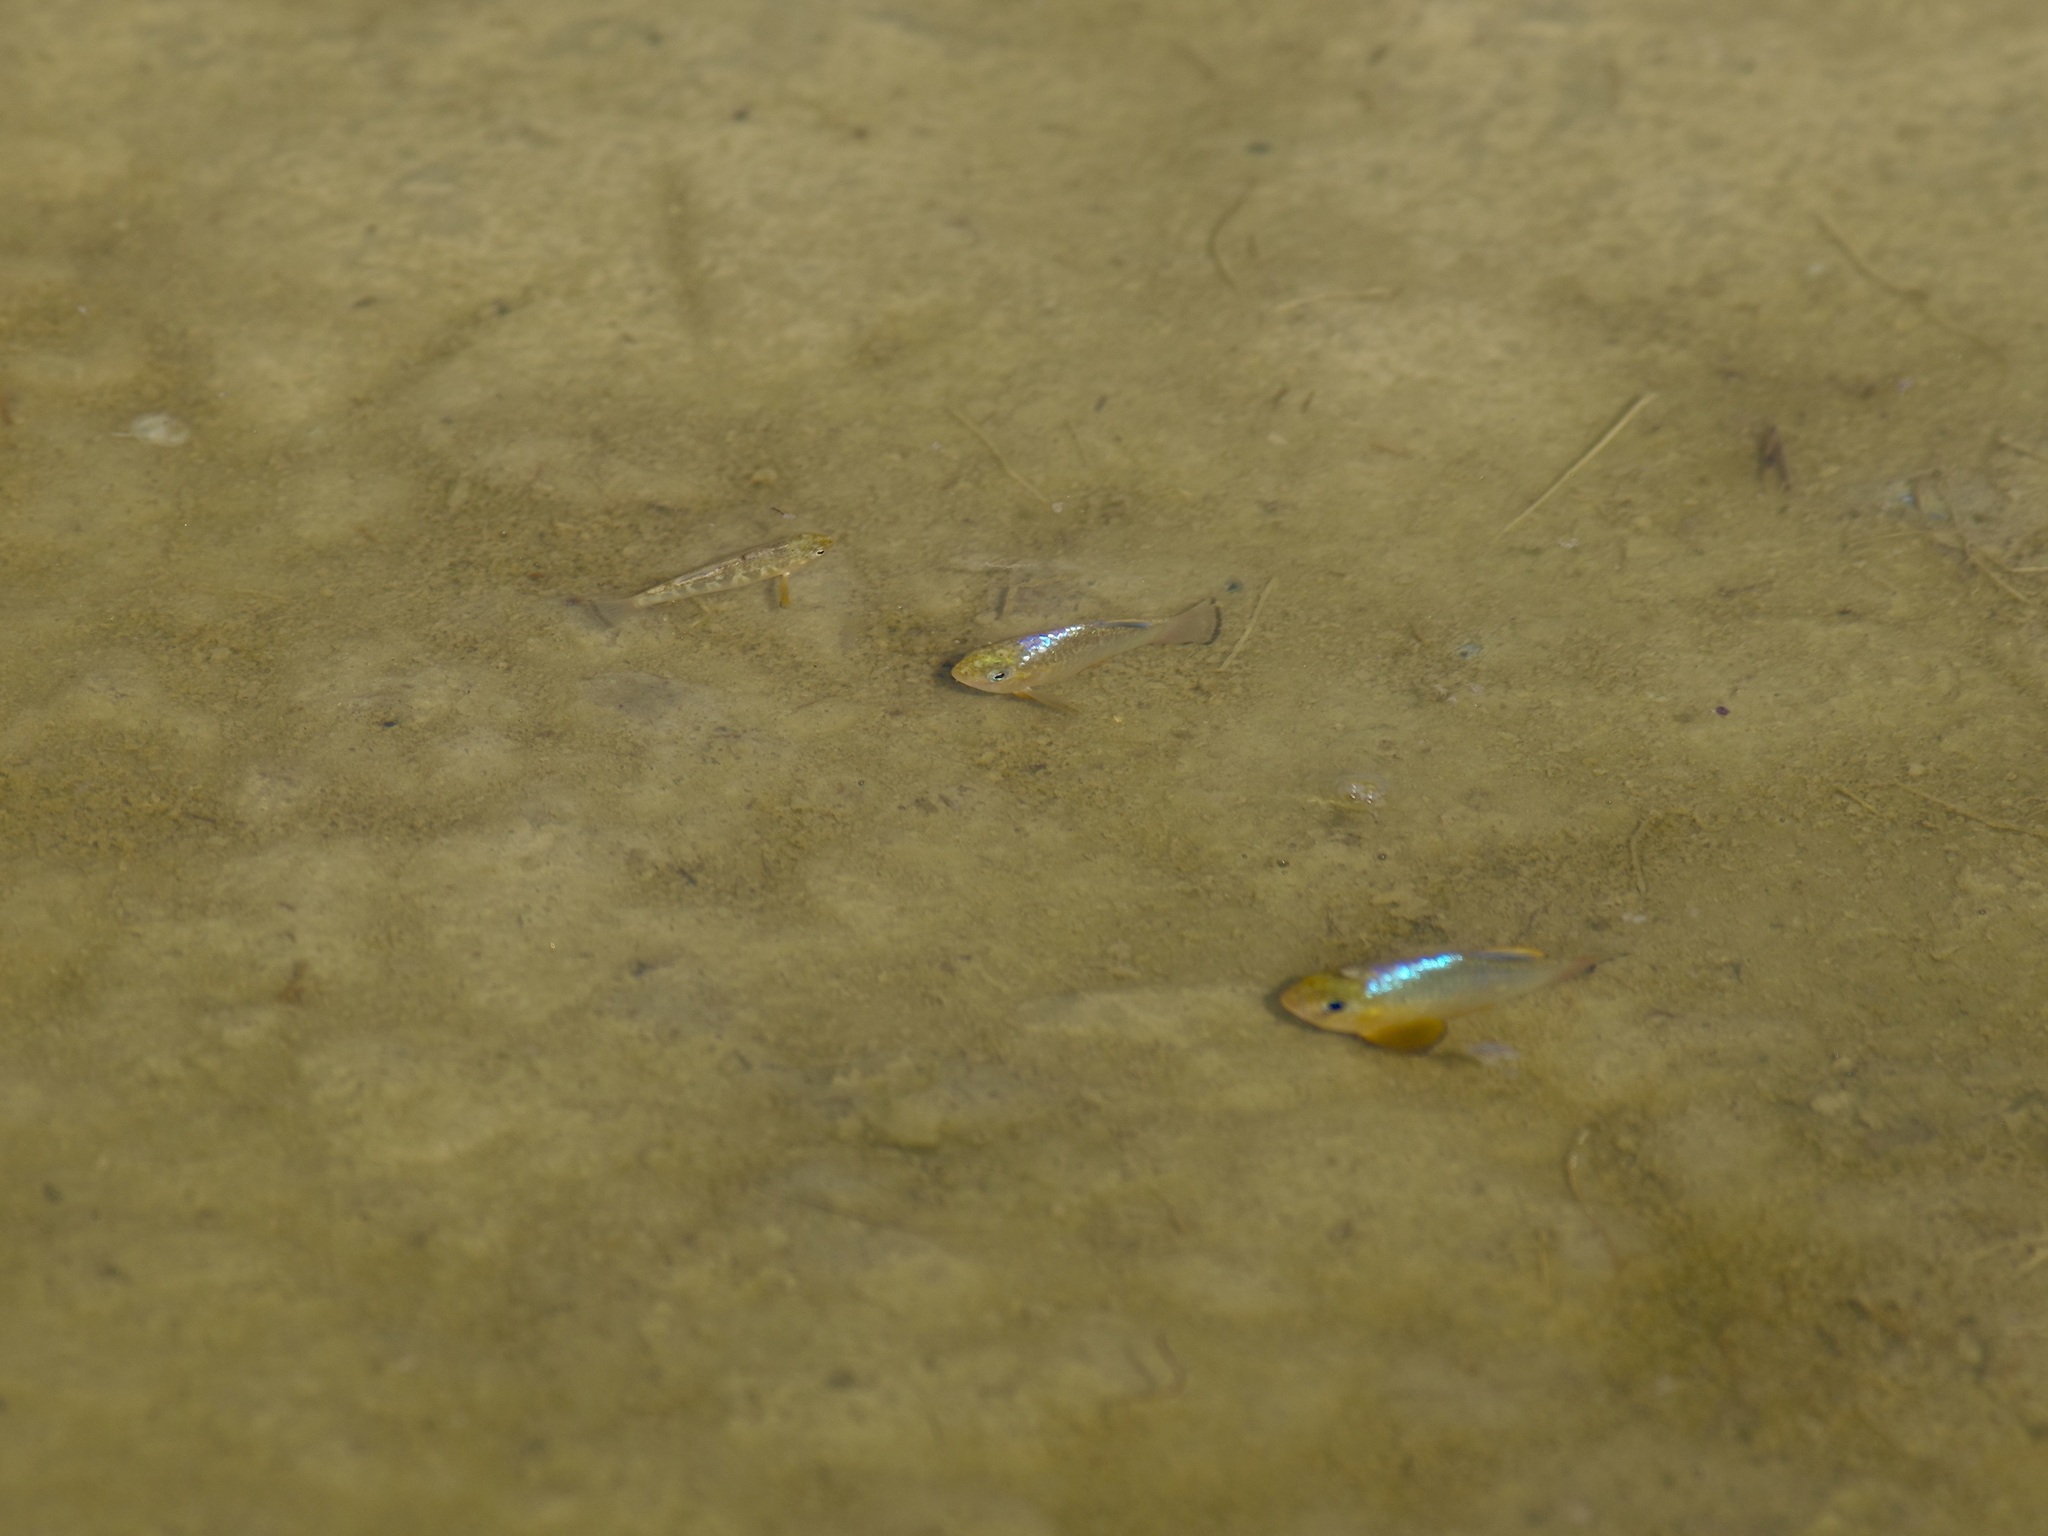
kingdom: Animalia
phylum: Chordata
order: Cyprinodontiformes
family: Cyprinodontidae
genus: Cyprinodon
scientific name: Cyprinodon variegatus
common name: Sheepshead minnow
